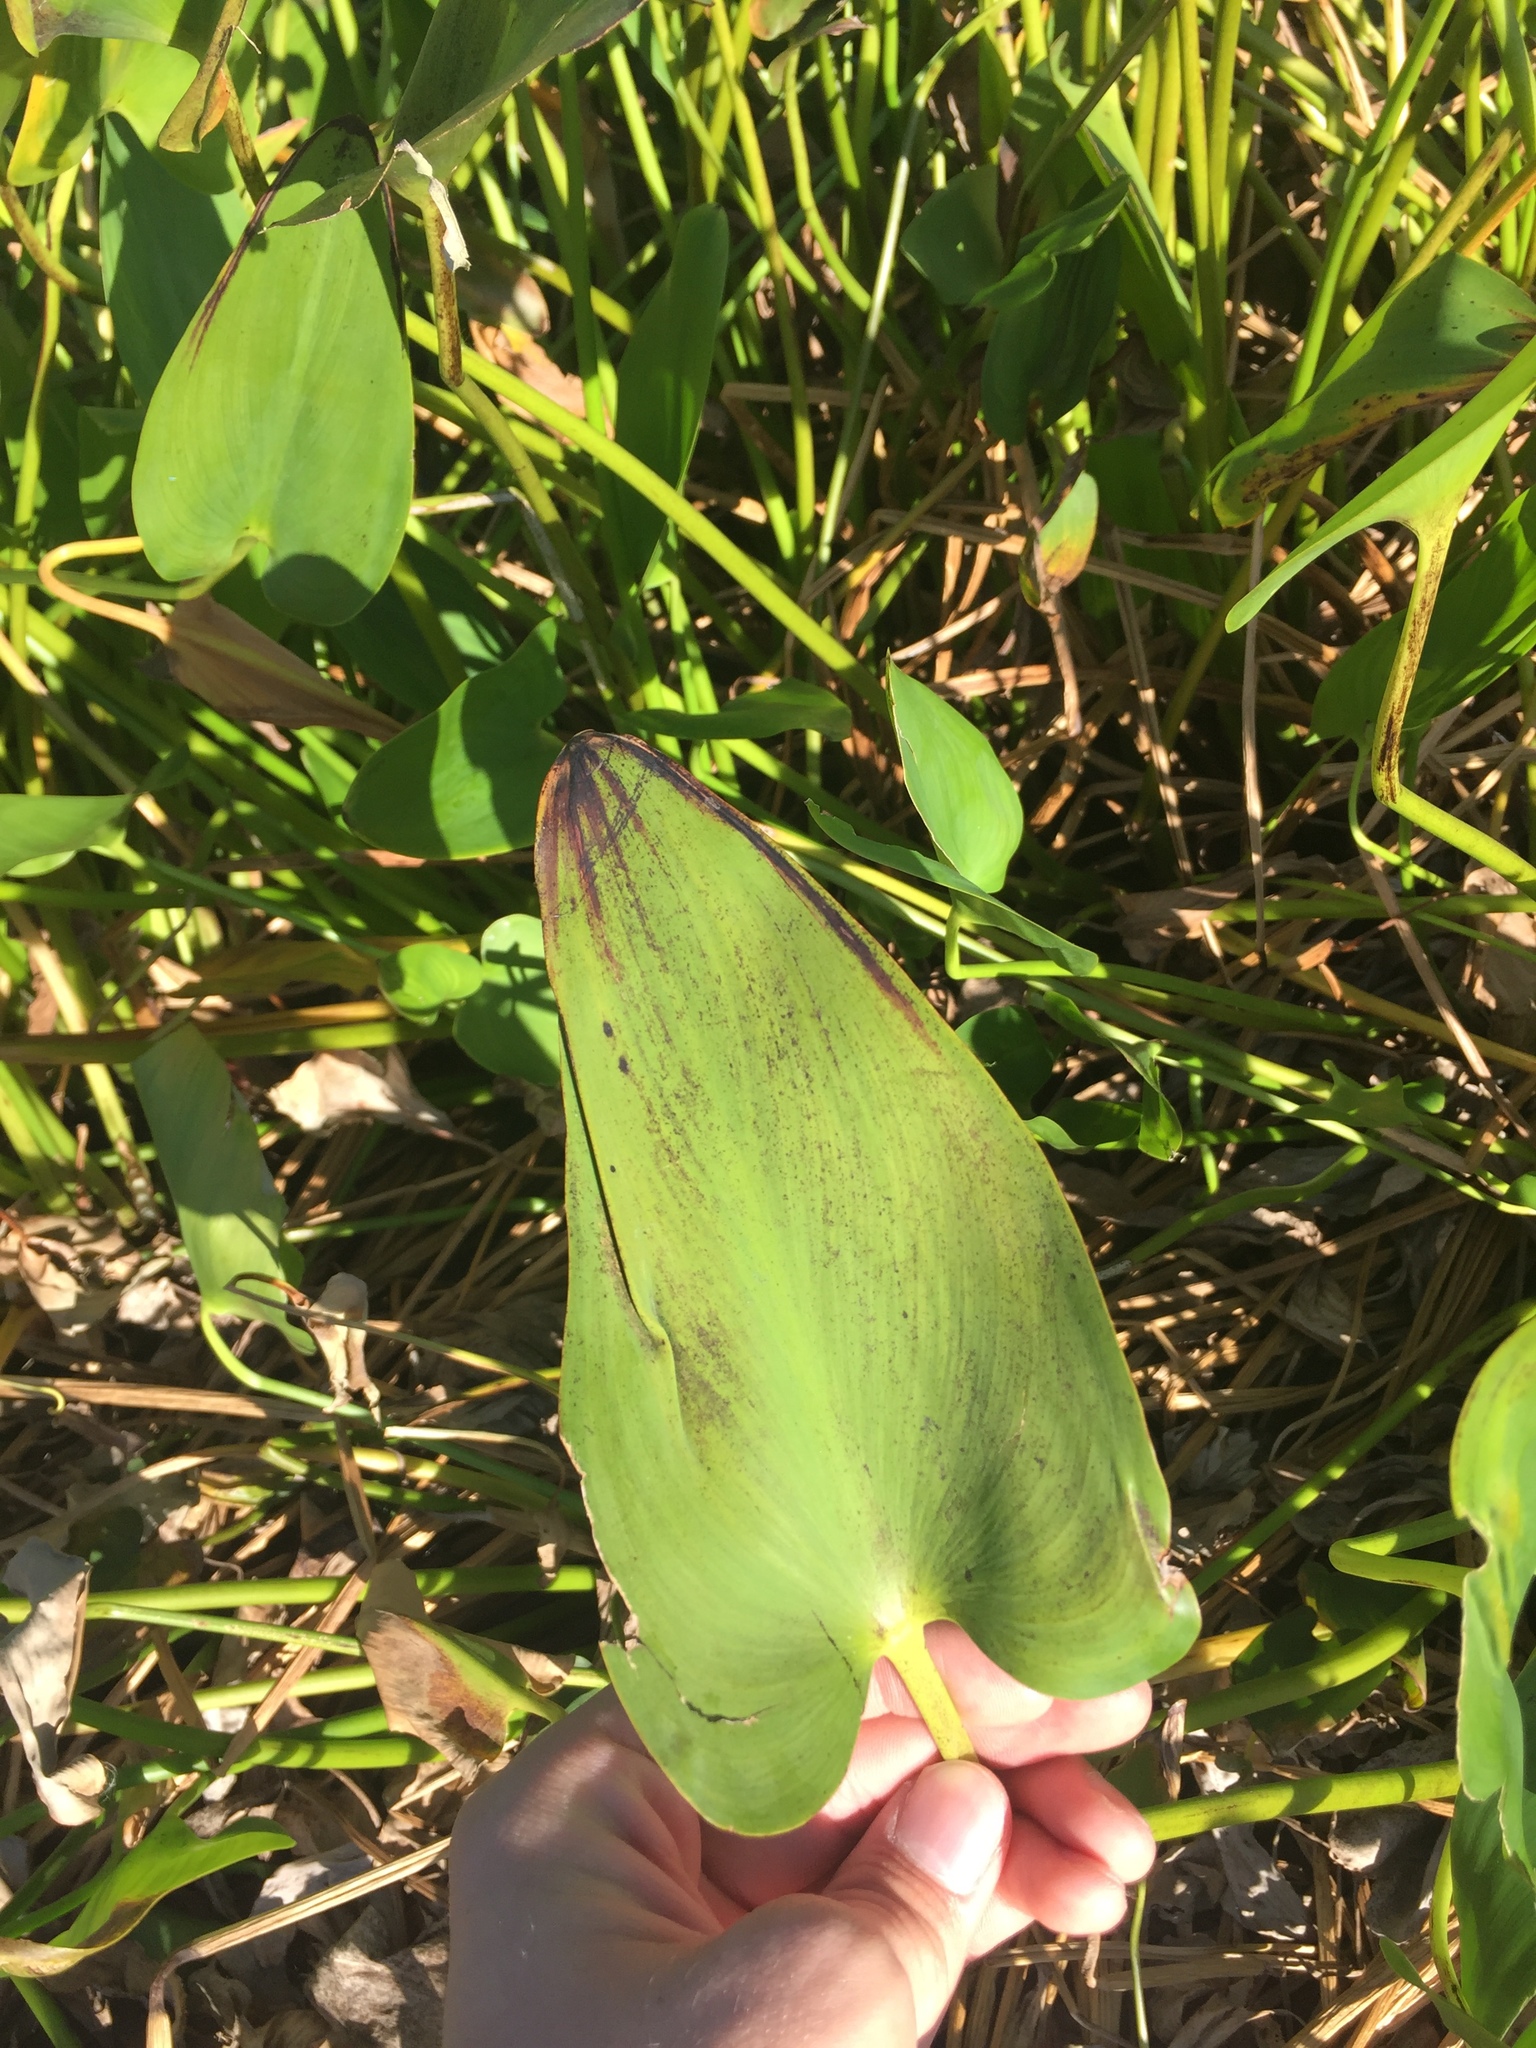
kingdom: Plantae
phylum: Tracheophyta
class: Liliopsida
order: Commelinales
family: Pontederiaceae
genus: Pontederia
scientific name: Pontederia cordata
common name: Pickerelweed
